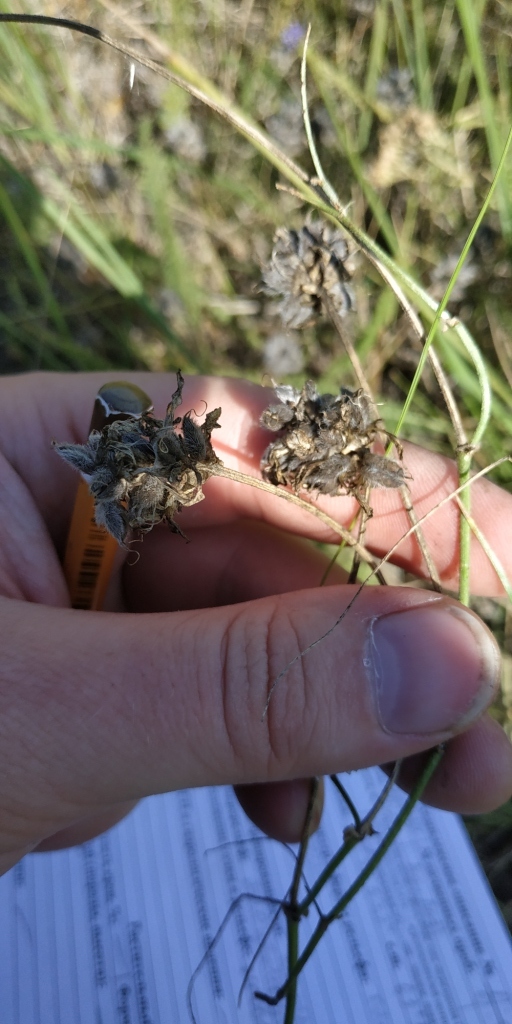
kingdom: Plantae
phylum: Tracheophyta
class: Magnoliopsida
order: Fabales
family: Fabaceae
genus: Astragalus
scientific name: Astragalus danicus
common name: Purple milk-vetch
